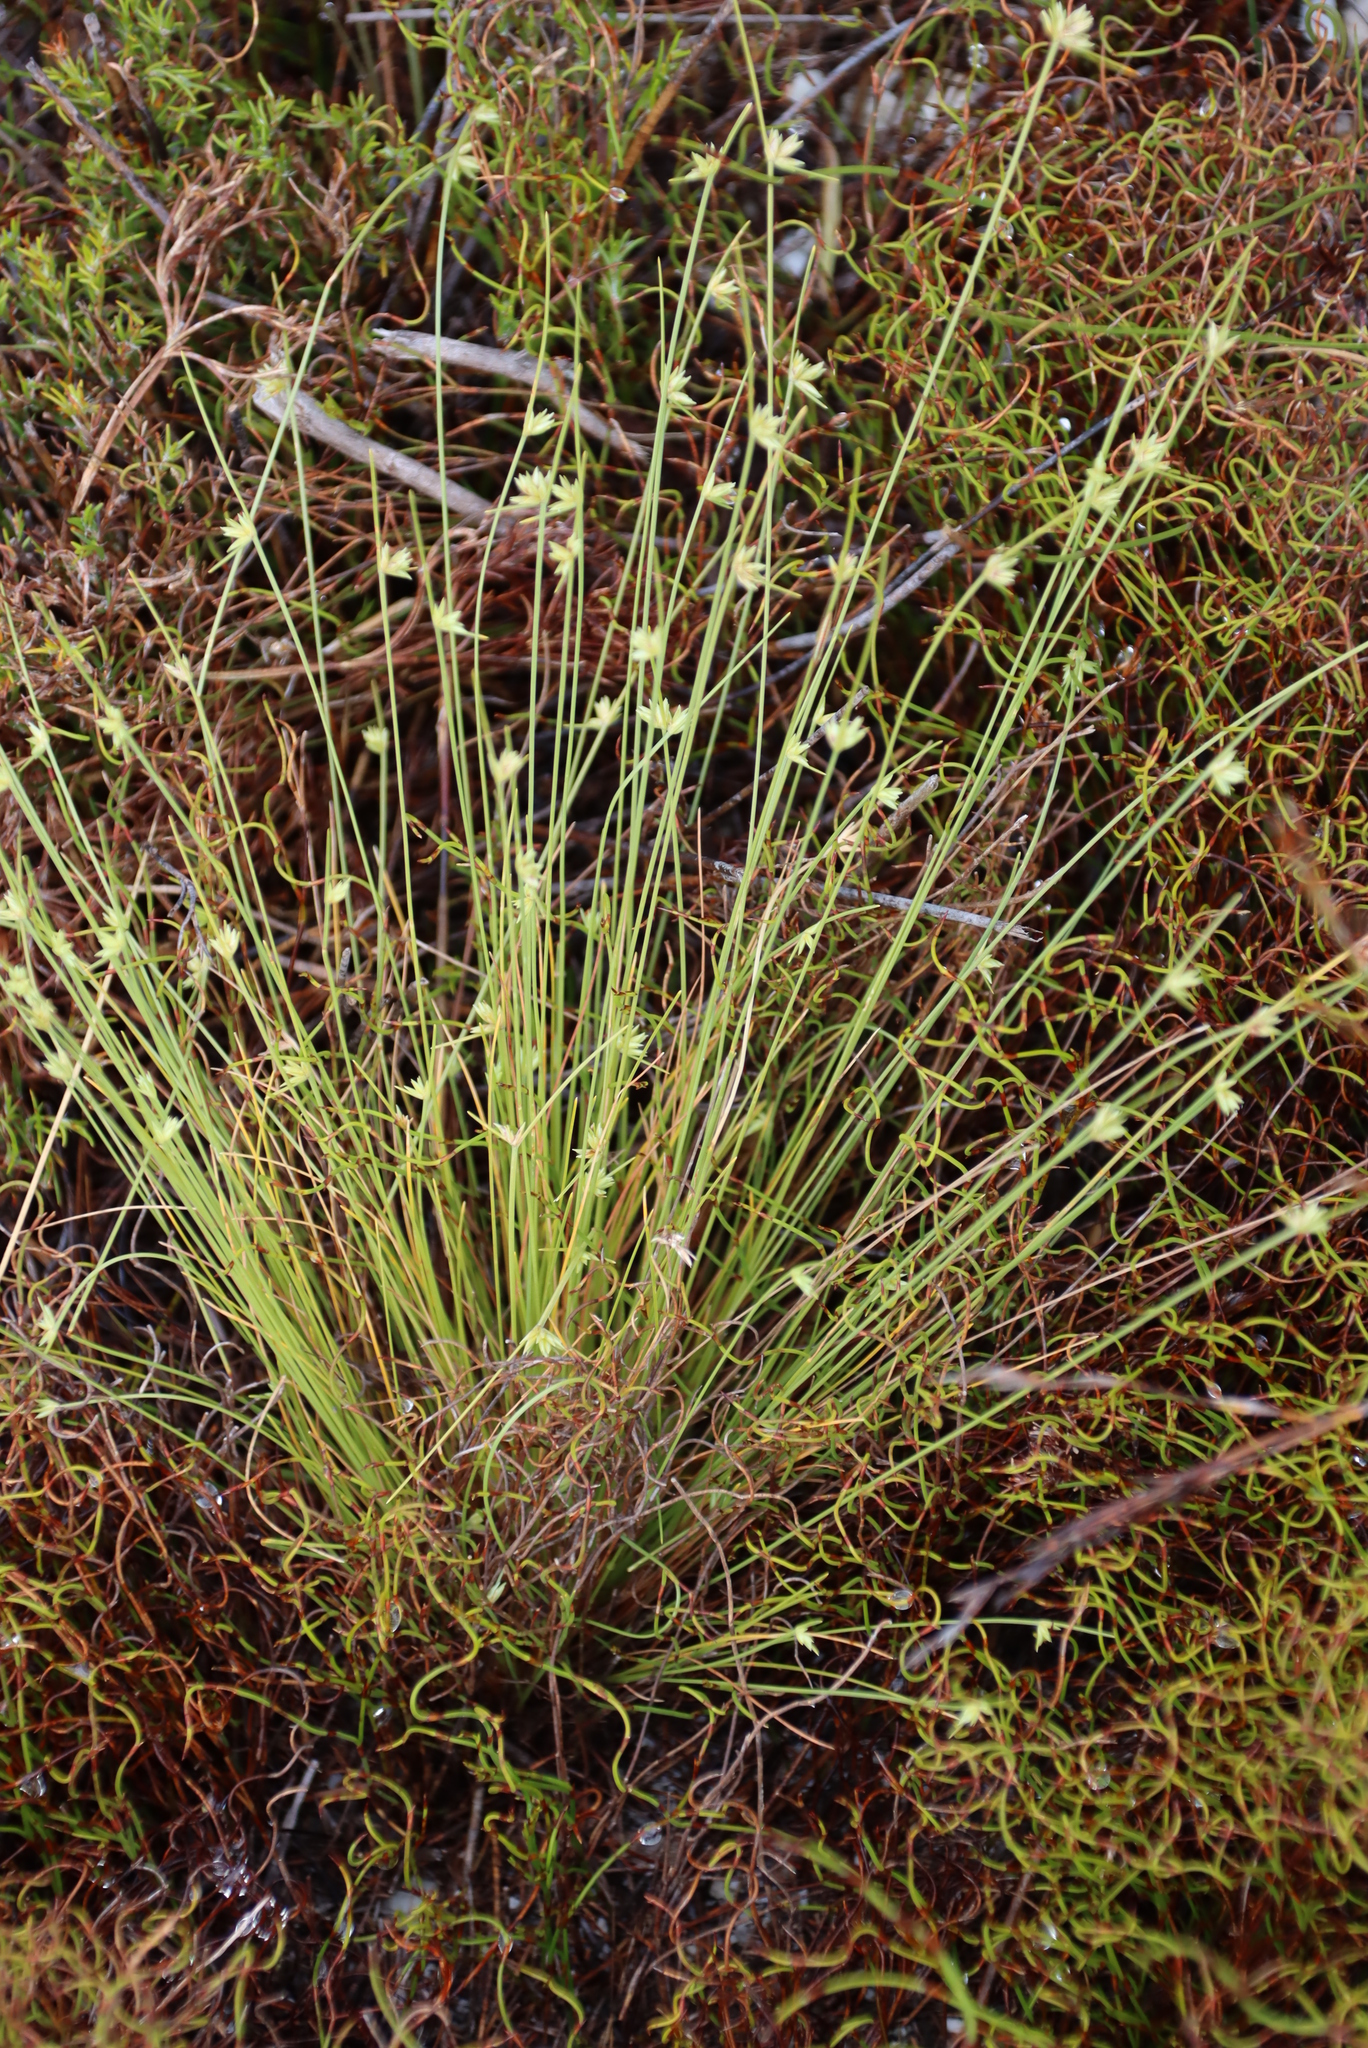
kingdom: Plantae
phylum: Tracheophyta
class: Liliopsida
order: Poales
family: Cyperaceae
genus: Ficinia
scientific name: Ficinia tristachya
